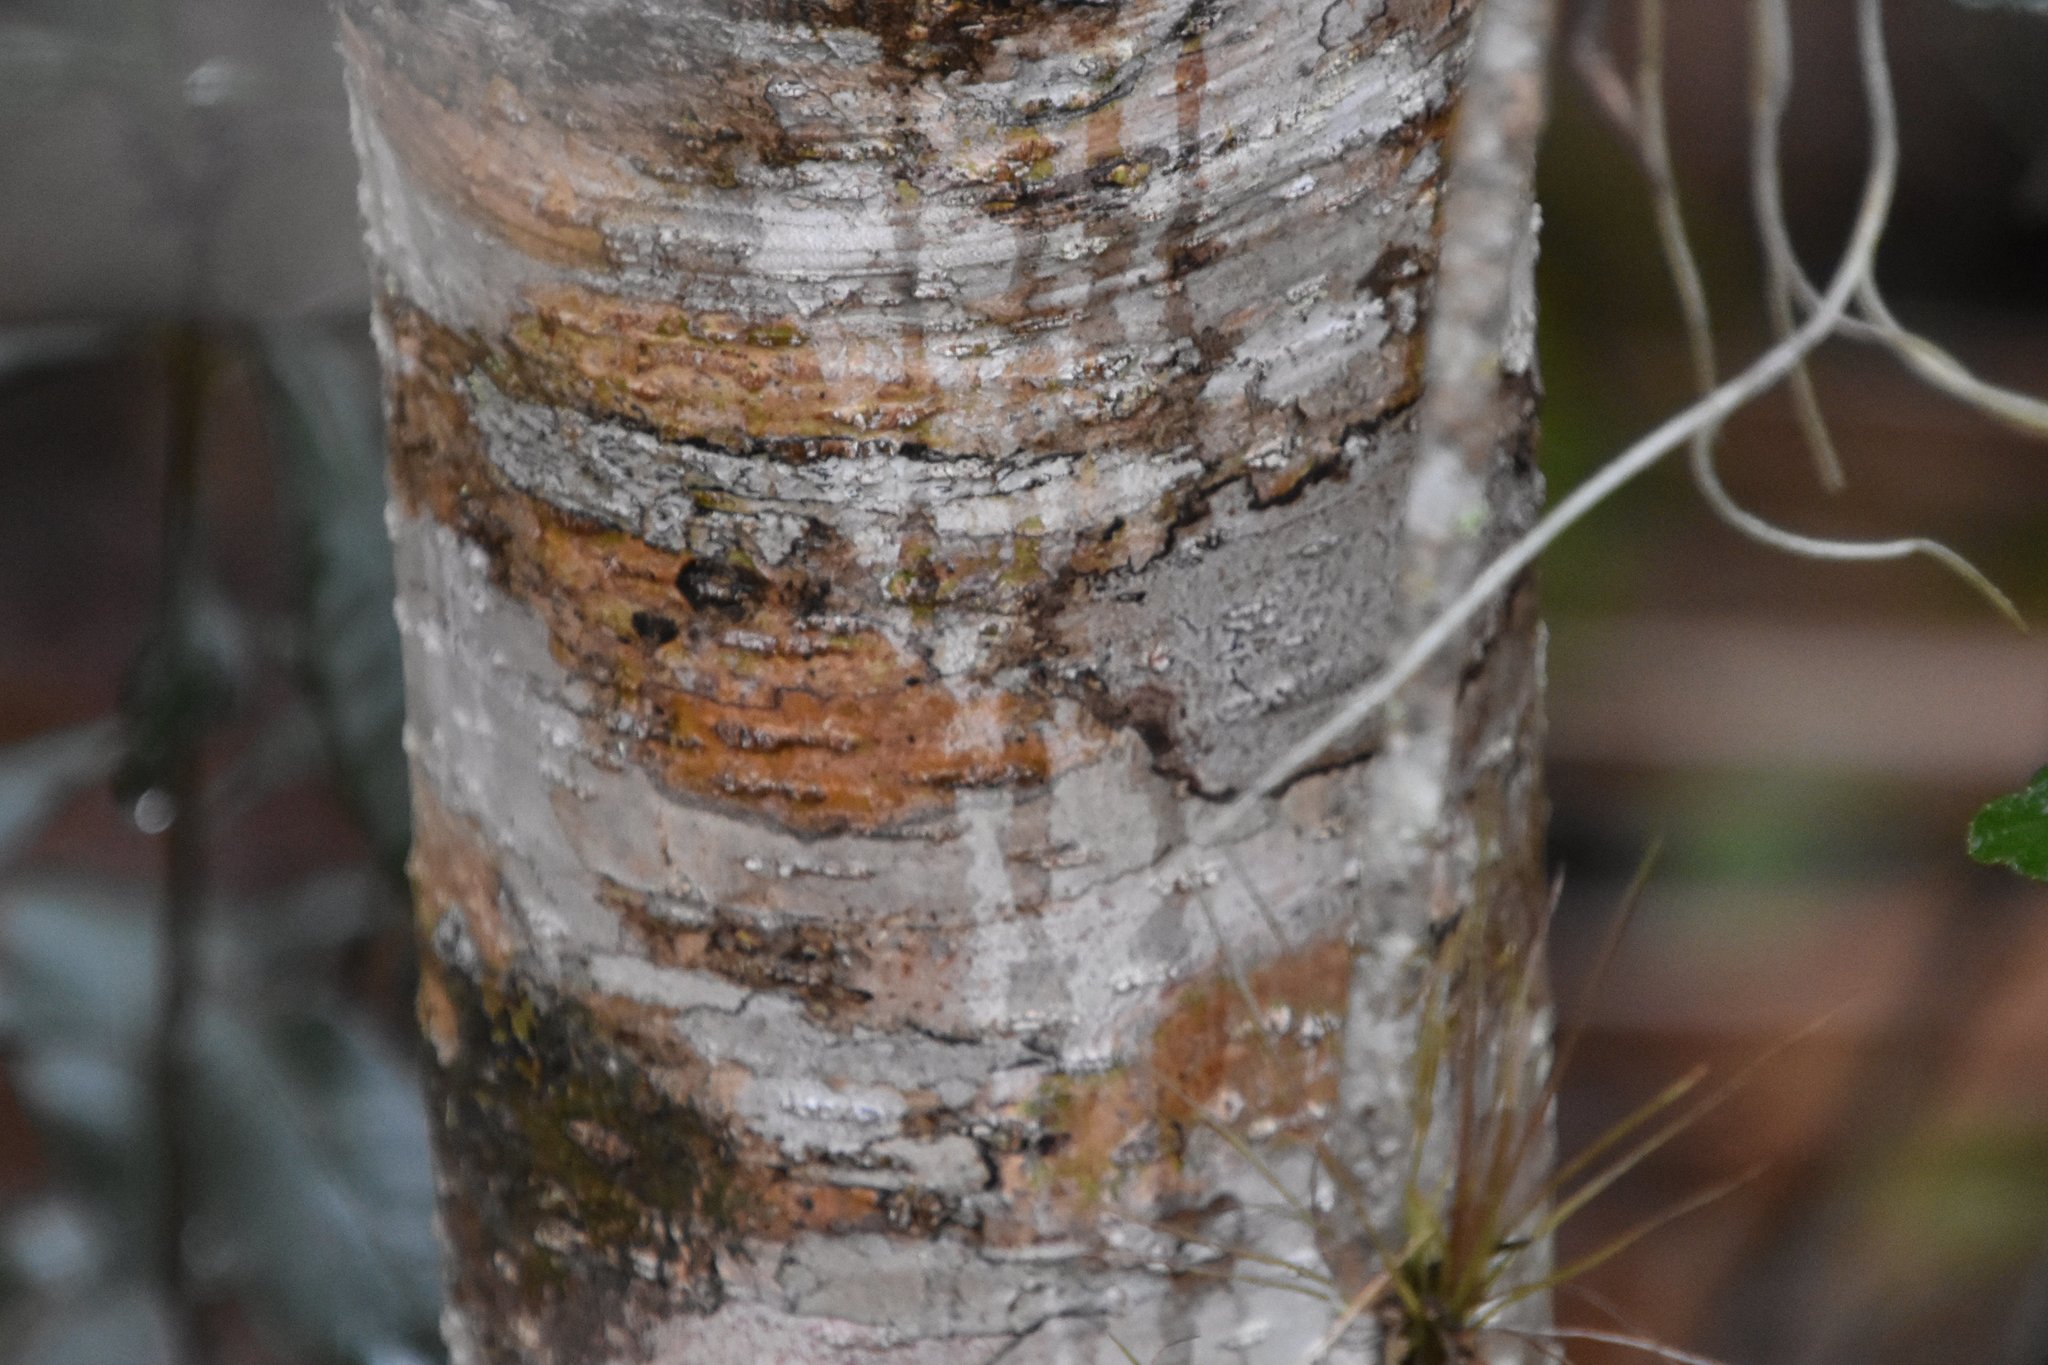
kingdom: Plantae
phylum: Tracheophyta
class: Magnoliopsida
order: Fagales
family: Myricaceae
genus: Morella
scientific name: Morella cerifera
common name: Wax myrtle
